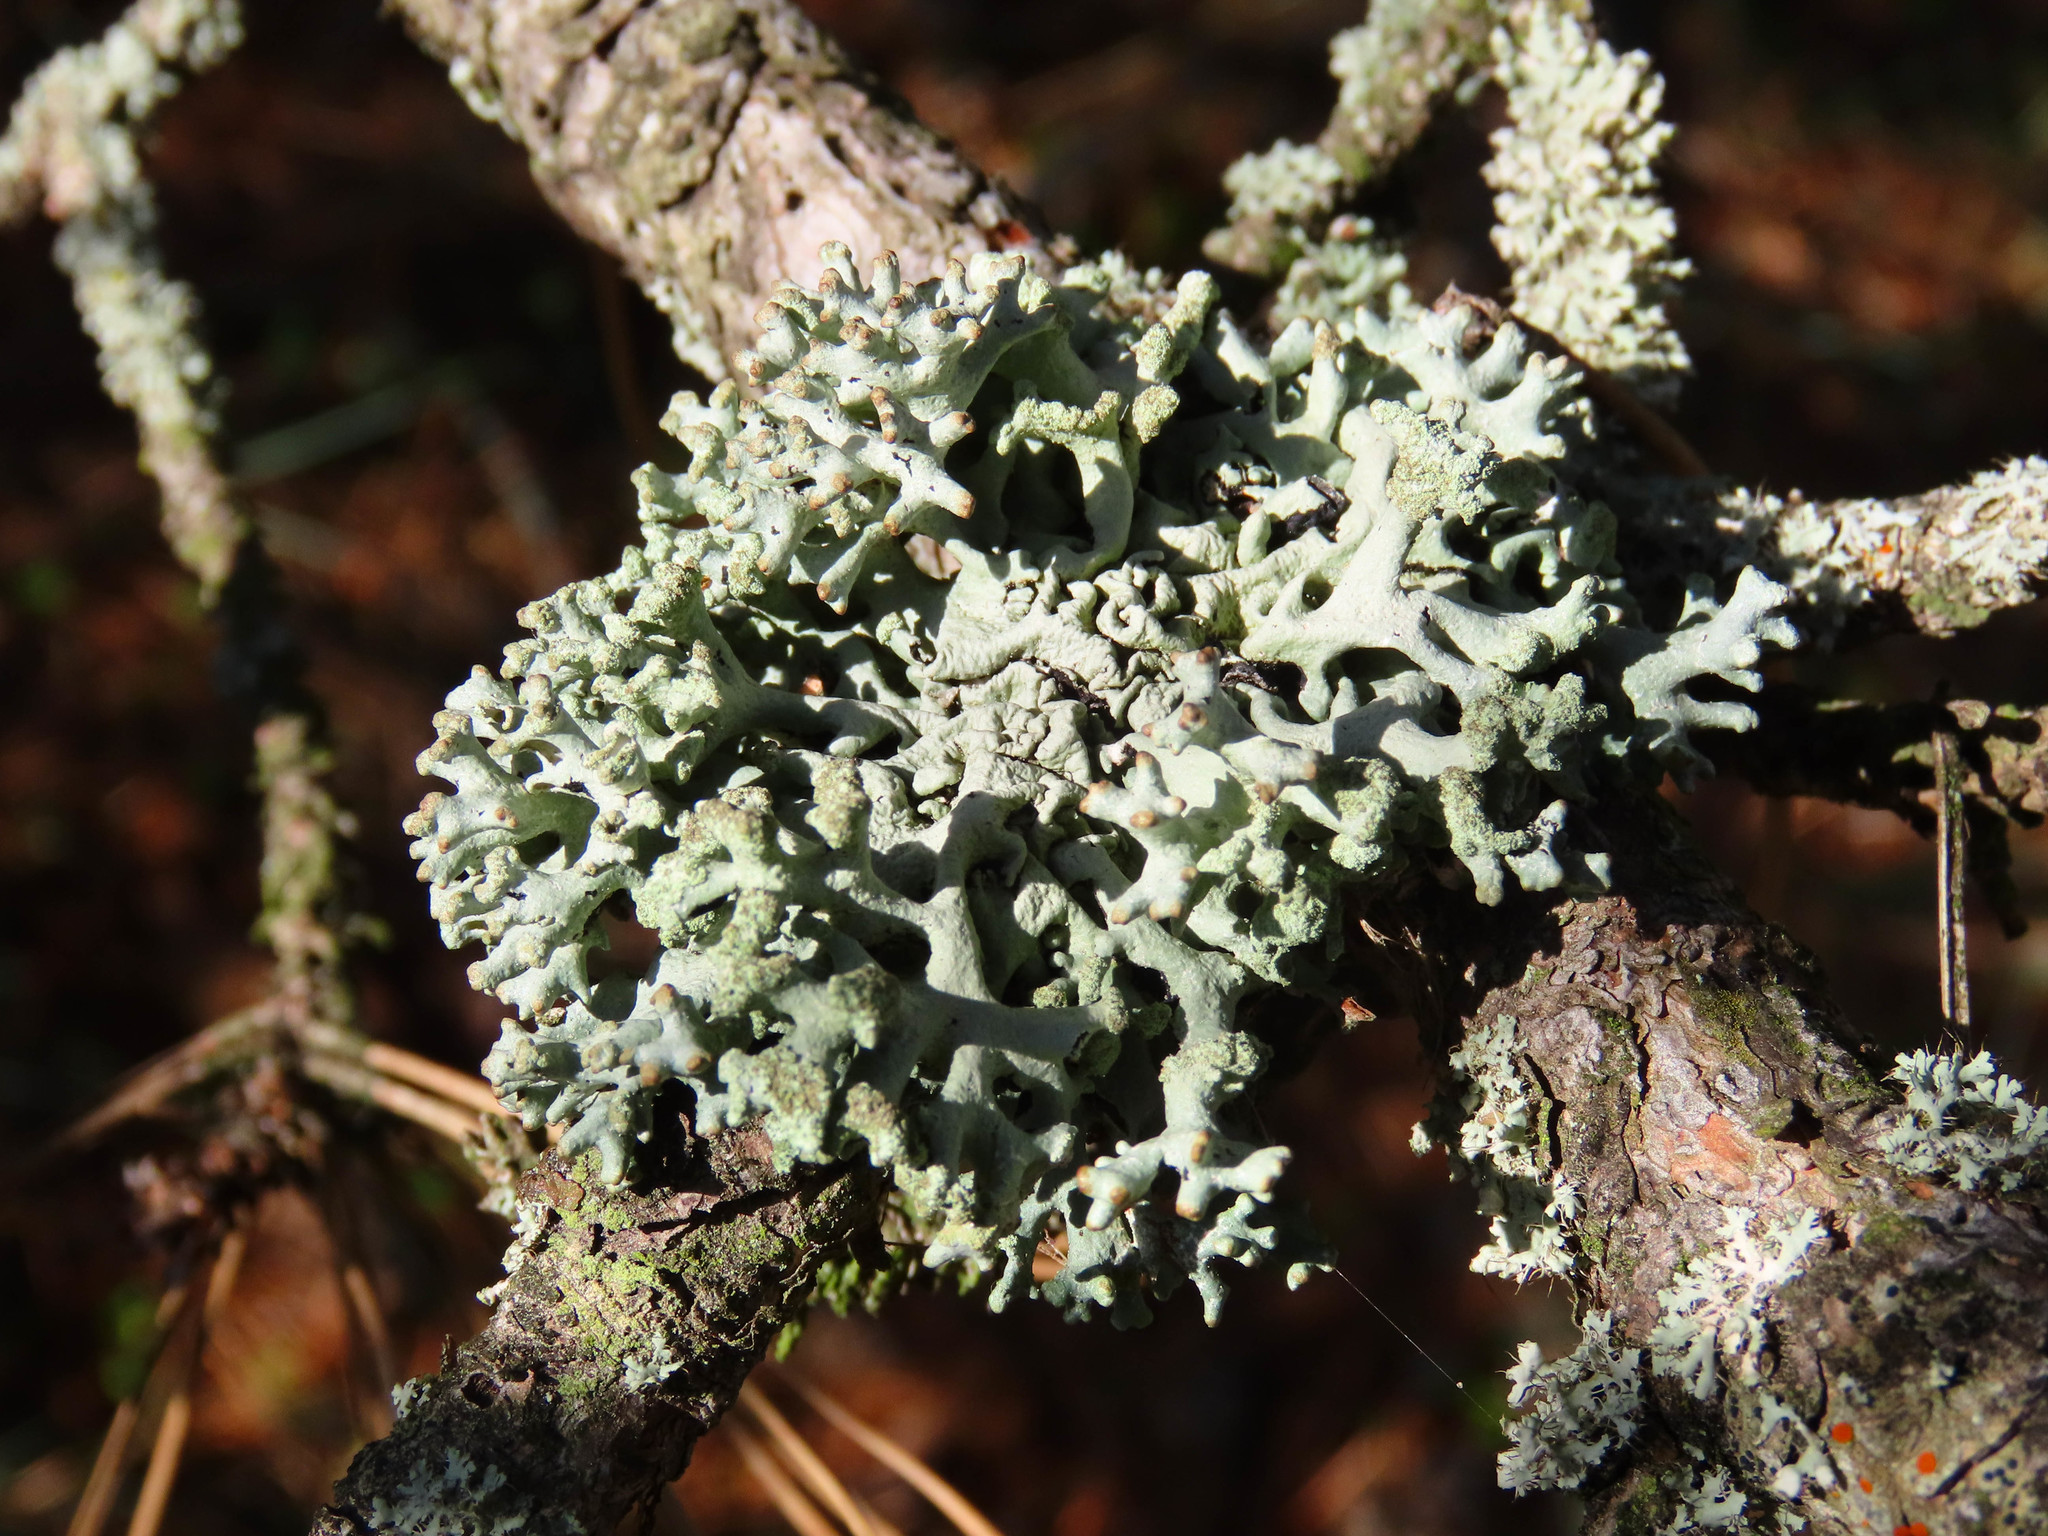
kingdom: Fungi
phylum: Ascomycota
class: Lecanoromycetes
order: Lecanorales
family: Parmeliaceae
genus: Hypogymnia
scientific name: Hypogymnia tubulosa
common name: Powder-headed tube lichen
